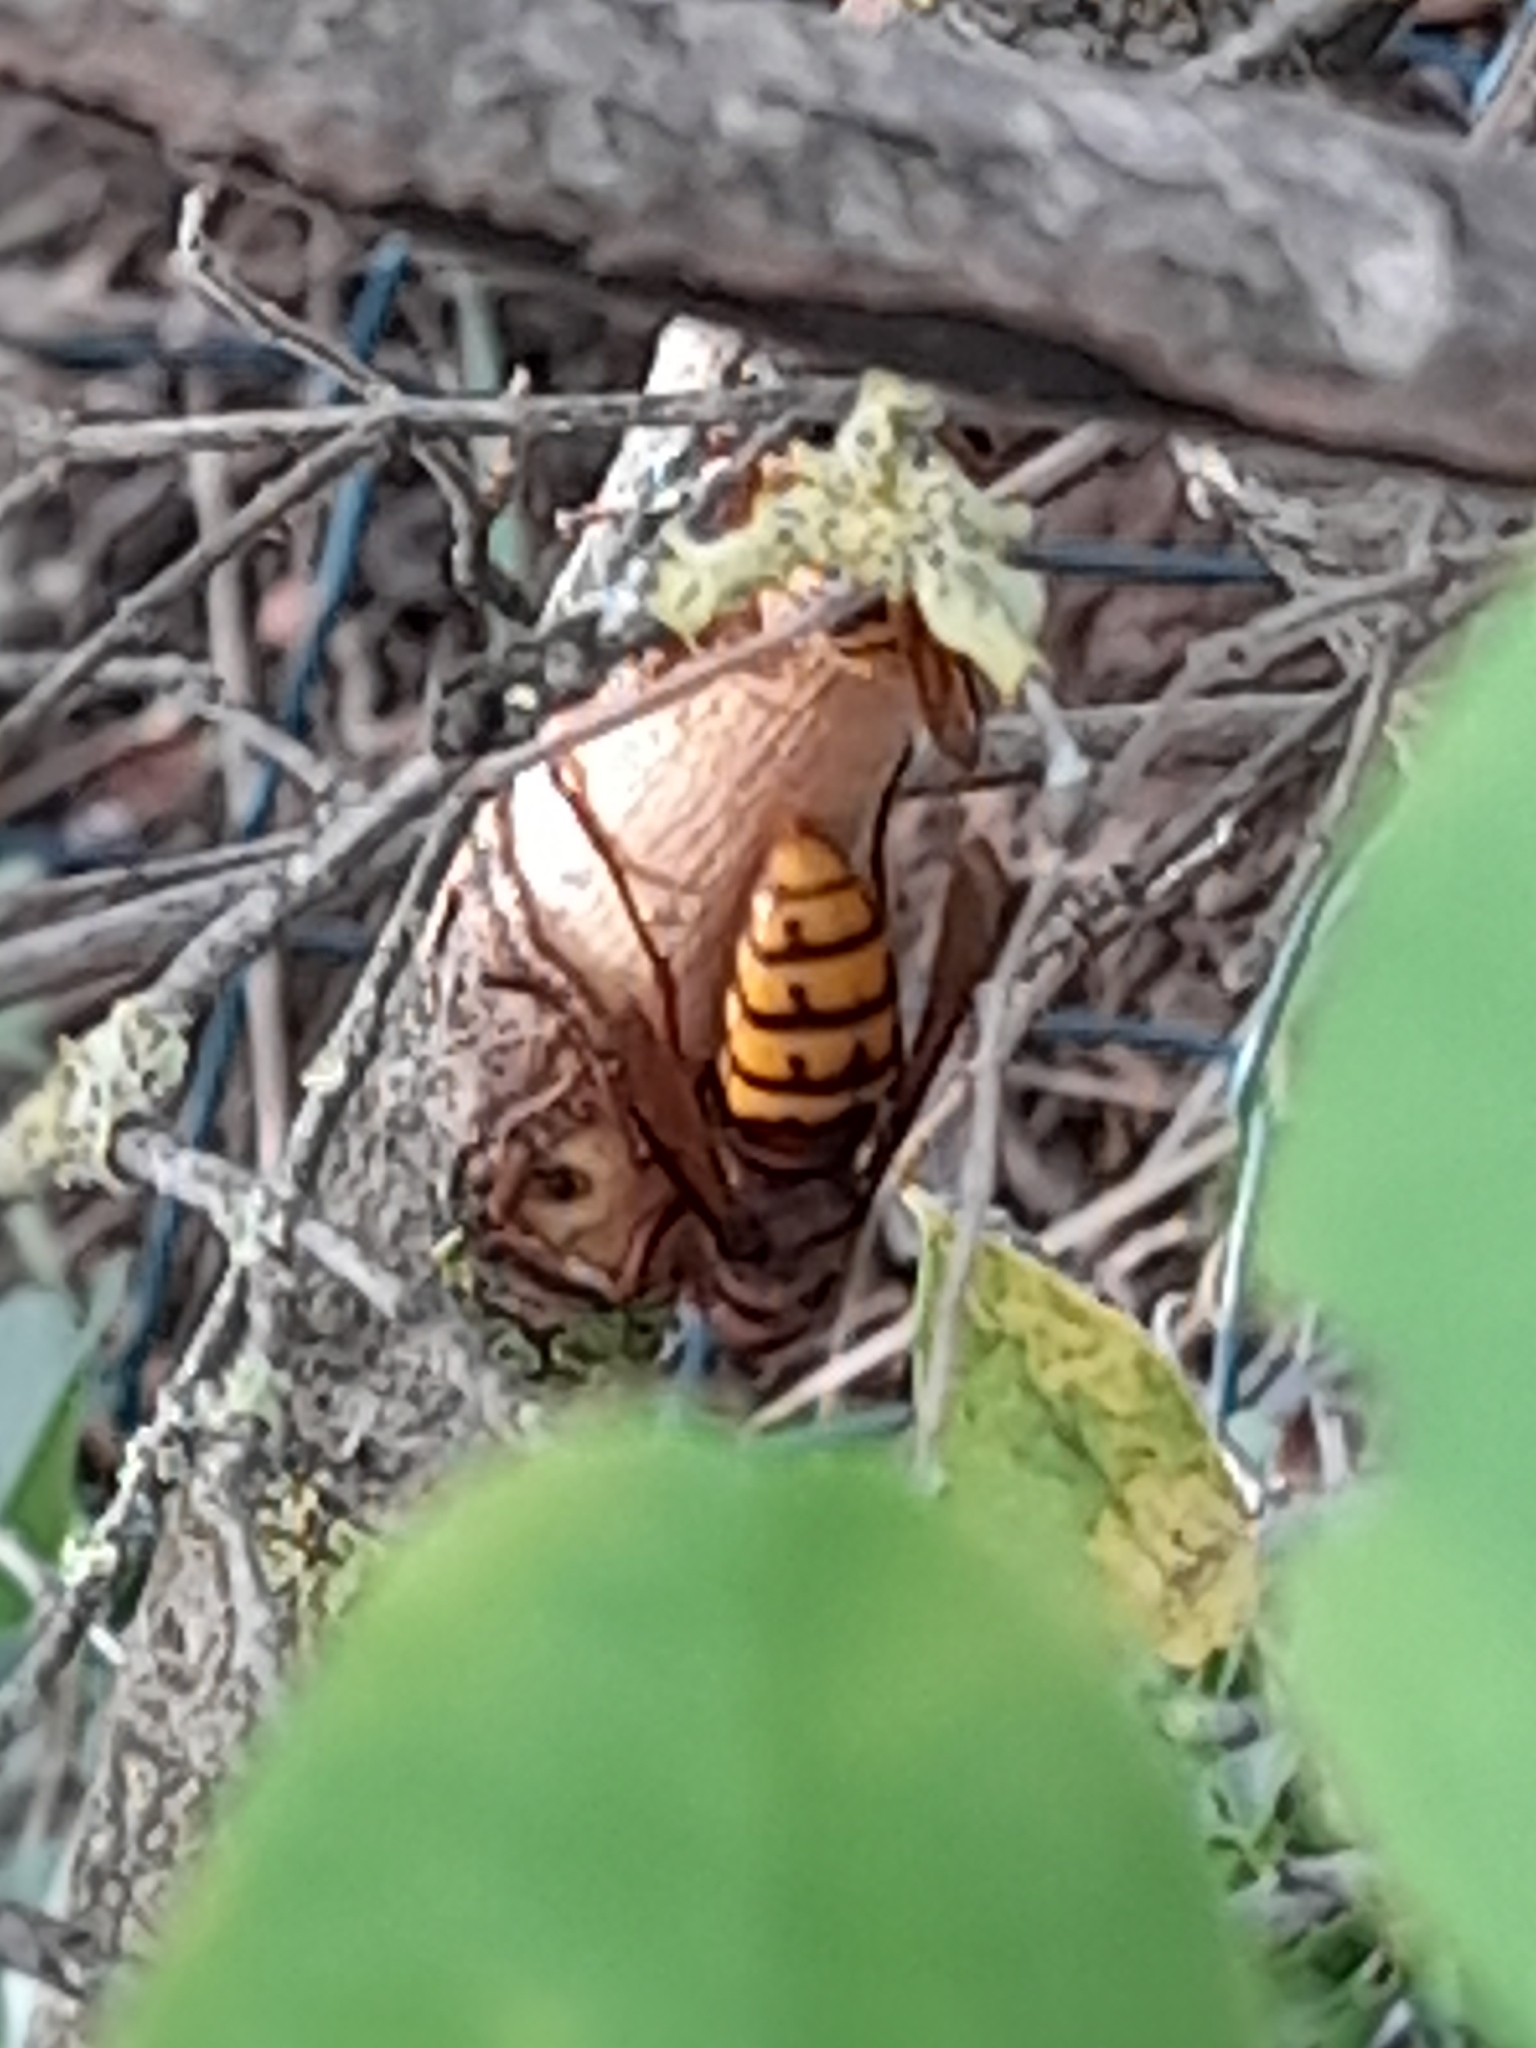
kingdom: Animalia
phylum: Arthropoda
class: Insecta
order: Hymenoptera
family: Vespidae
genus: Vespa
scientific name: Vespa crabro
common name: Hornet
